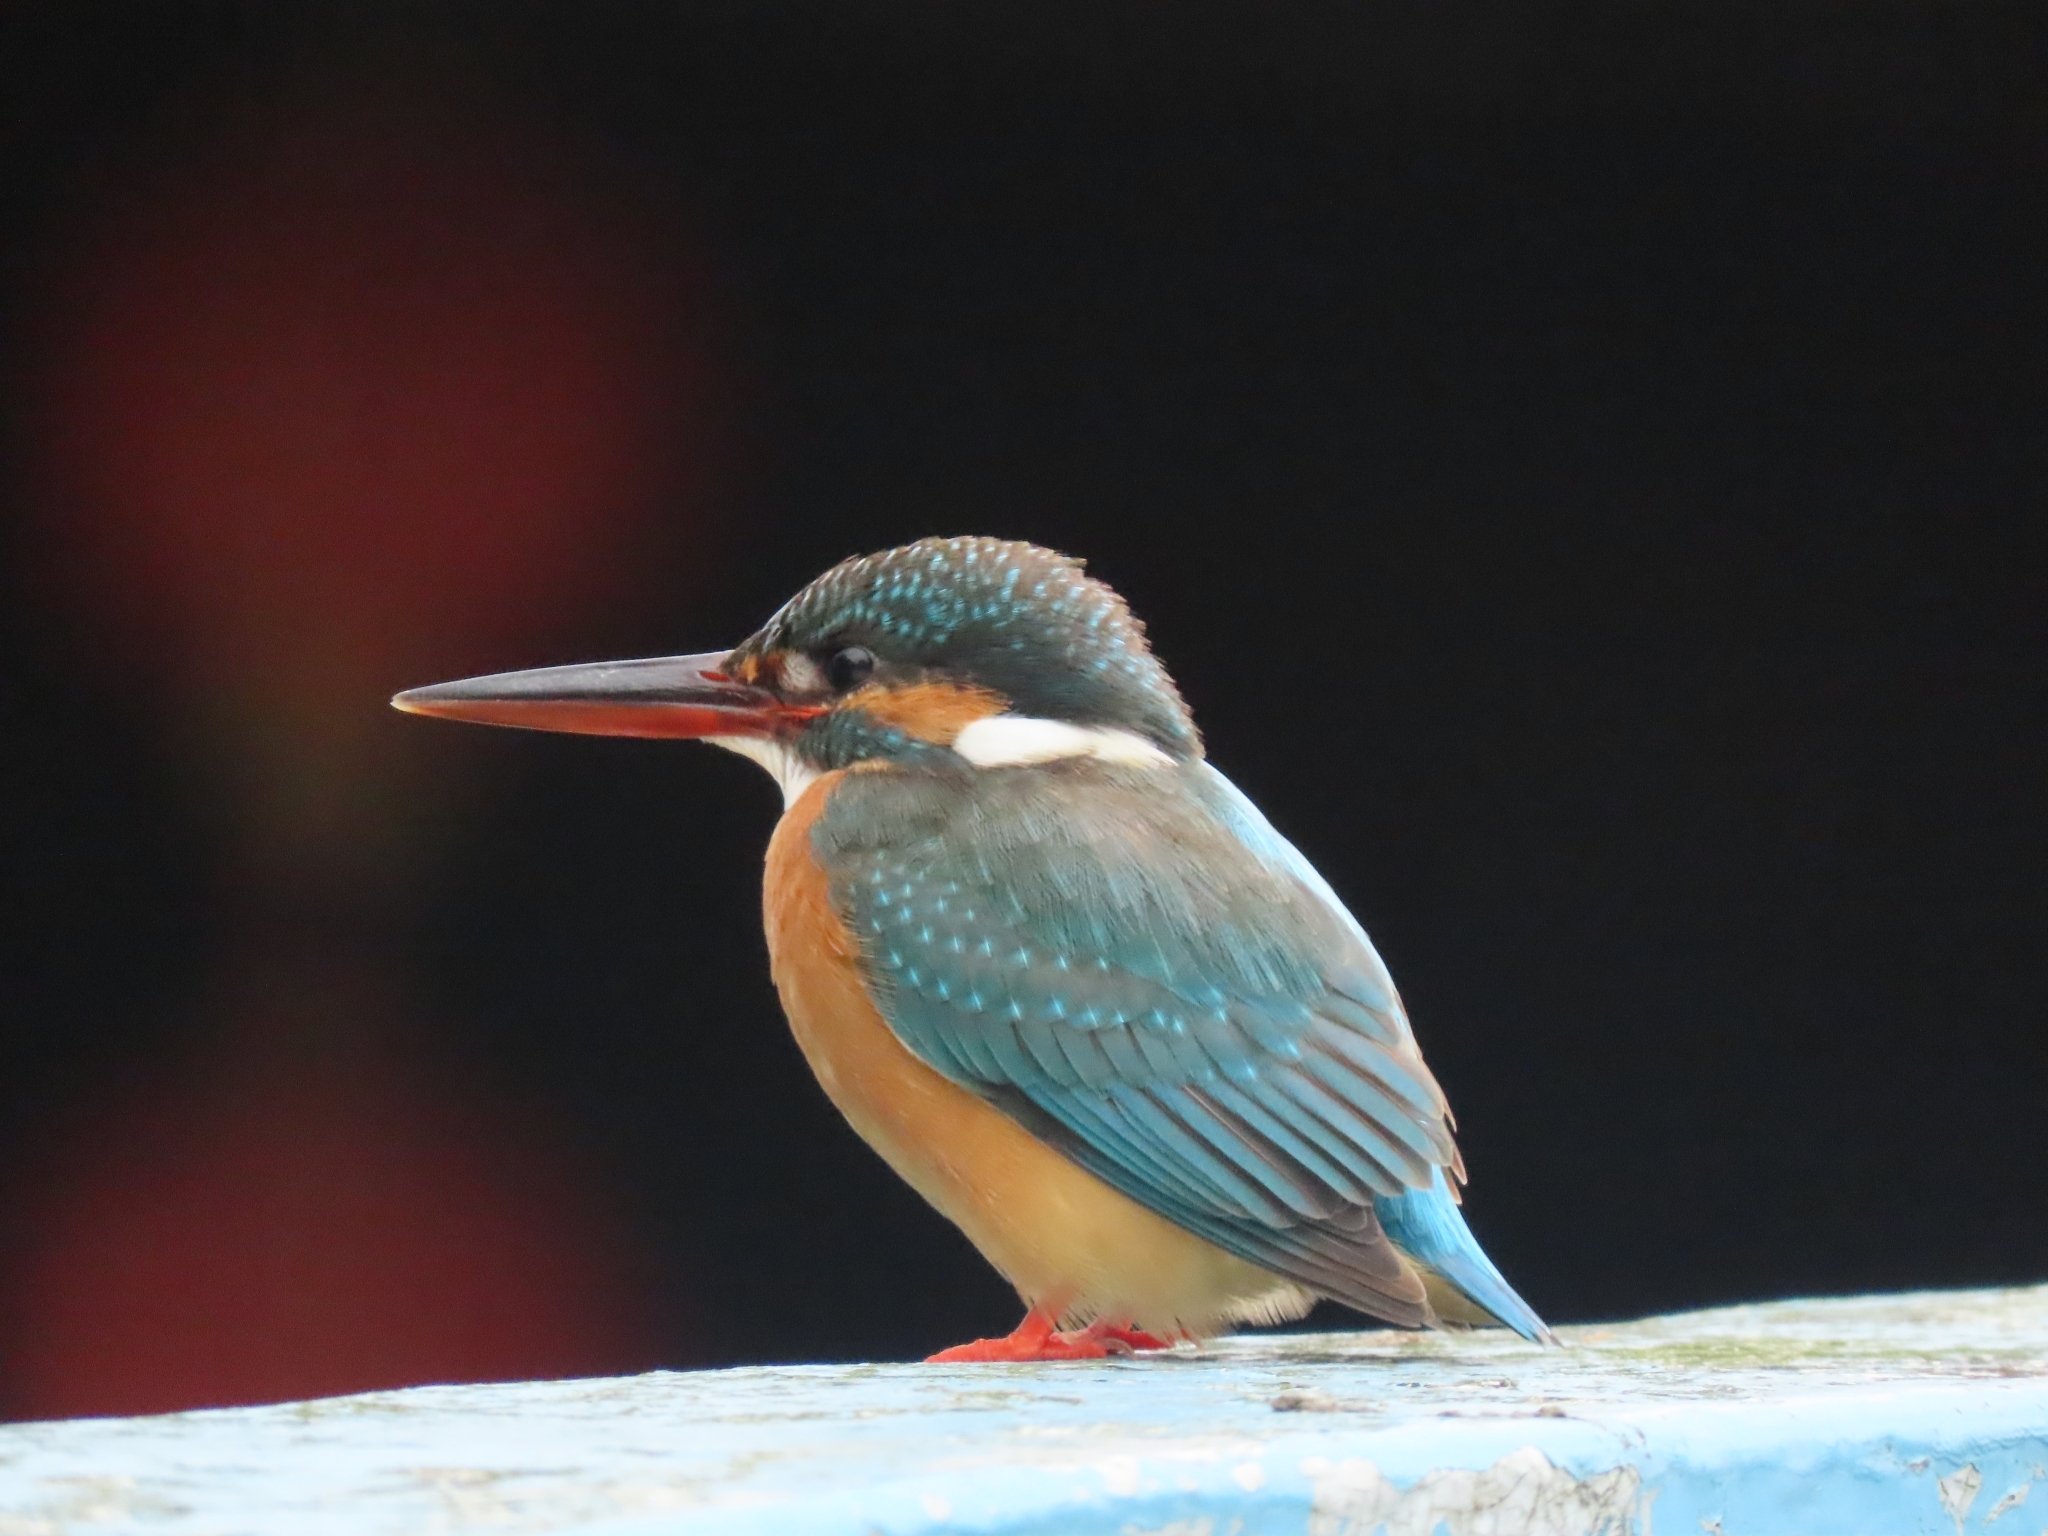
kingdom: Animalia
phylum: Chordata
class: Aves
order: Coraciiformes
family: Alcedinidae
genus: Alcedo
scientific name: Alcedo atthis
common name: Common kingfisher
